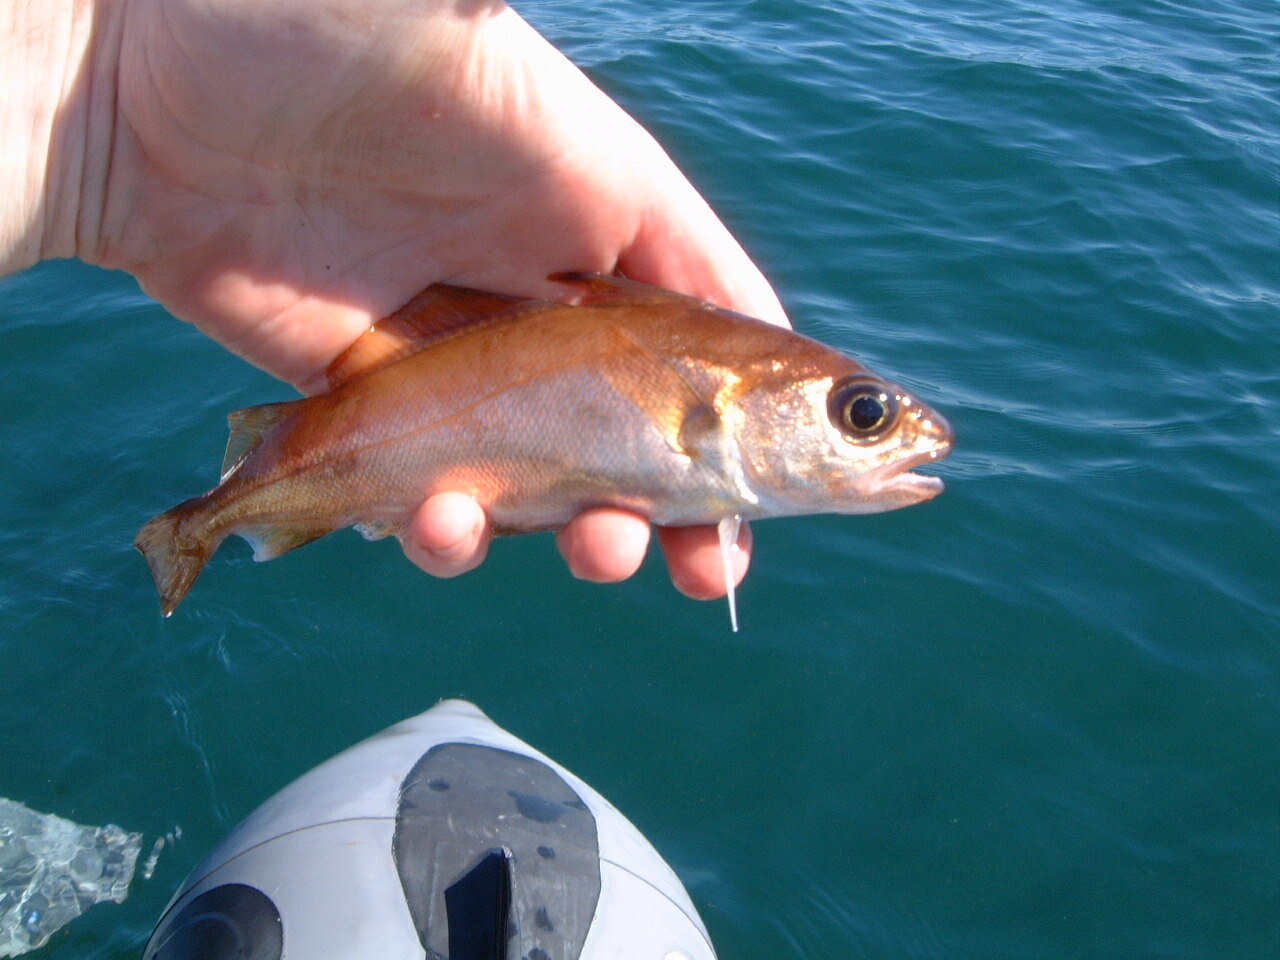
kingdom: Animalia
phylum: Chordata
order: Gadiformes
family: Gadidae
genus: Trisopterus
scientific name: Trisopterus minutus
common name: Poor cod
